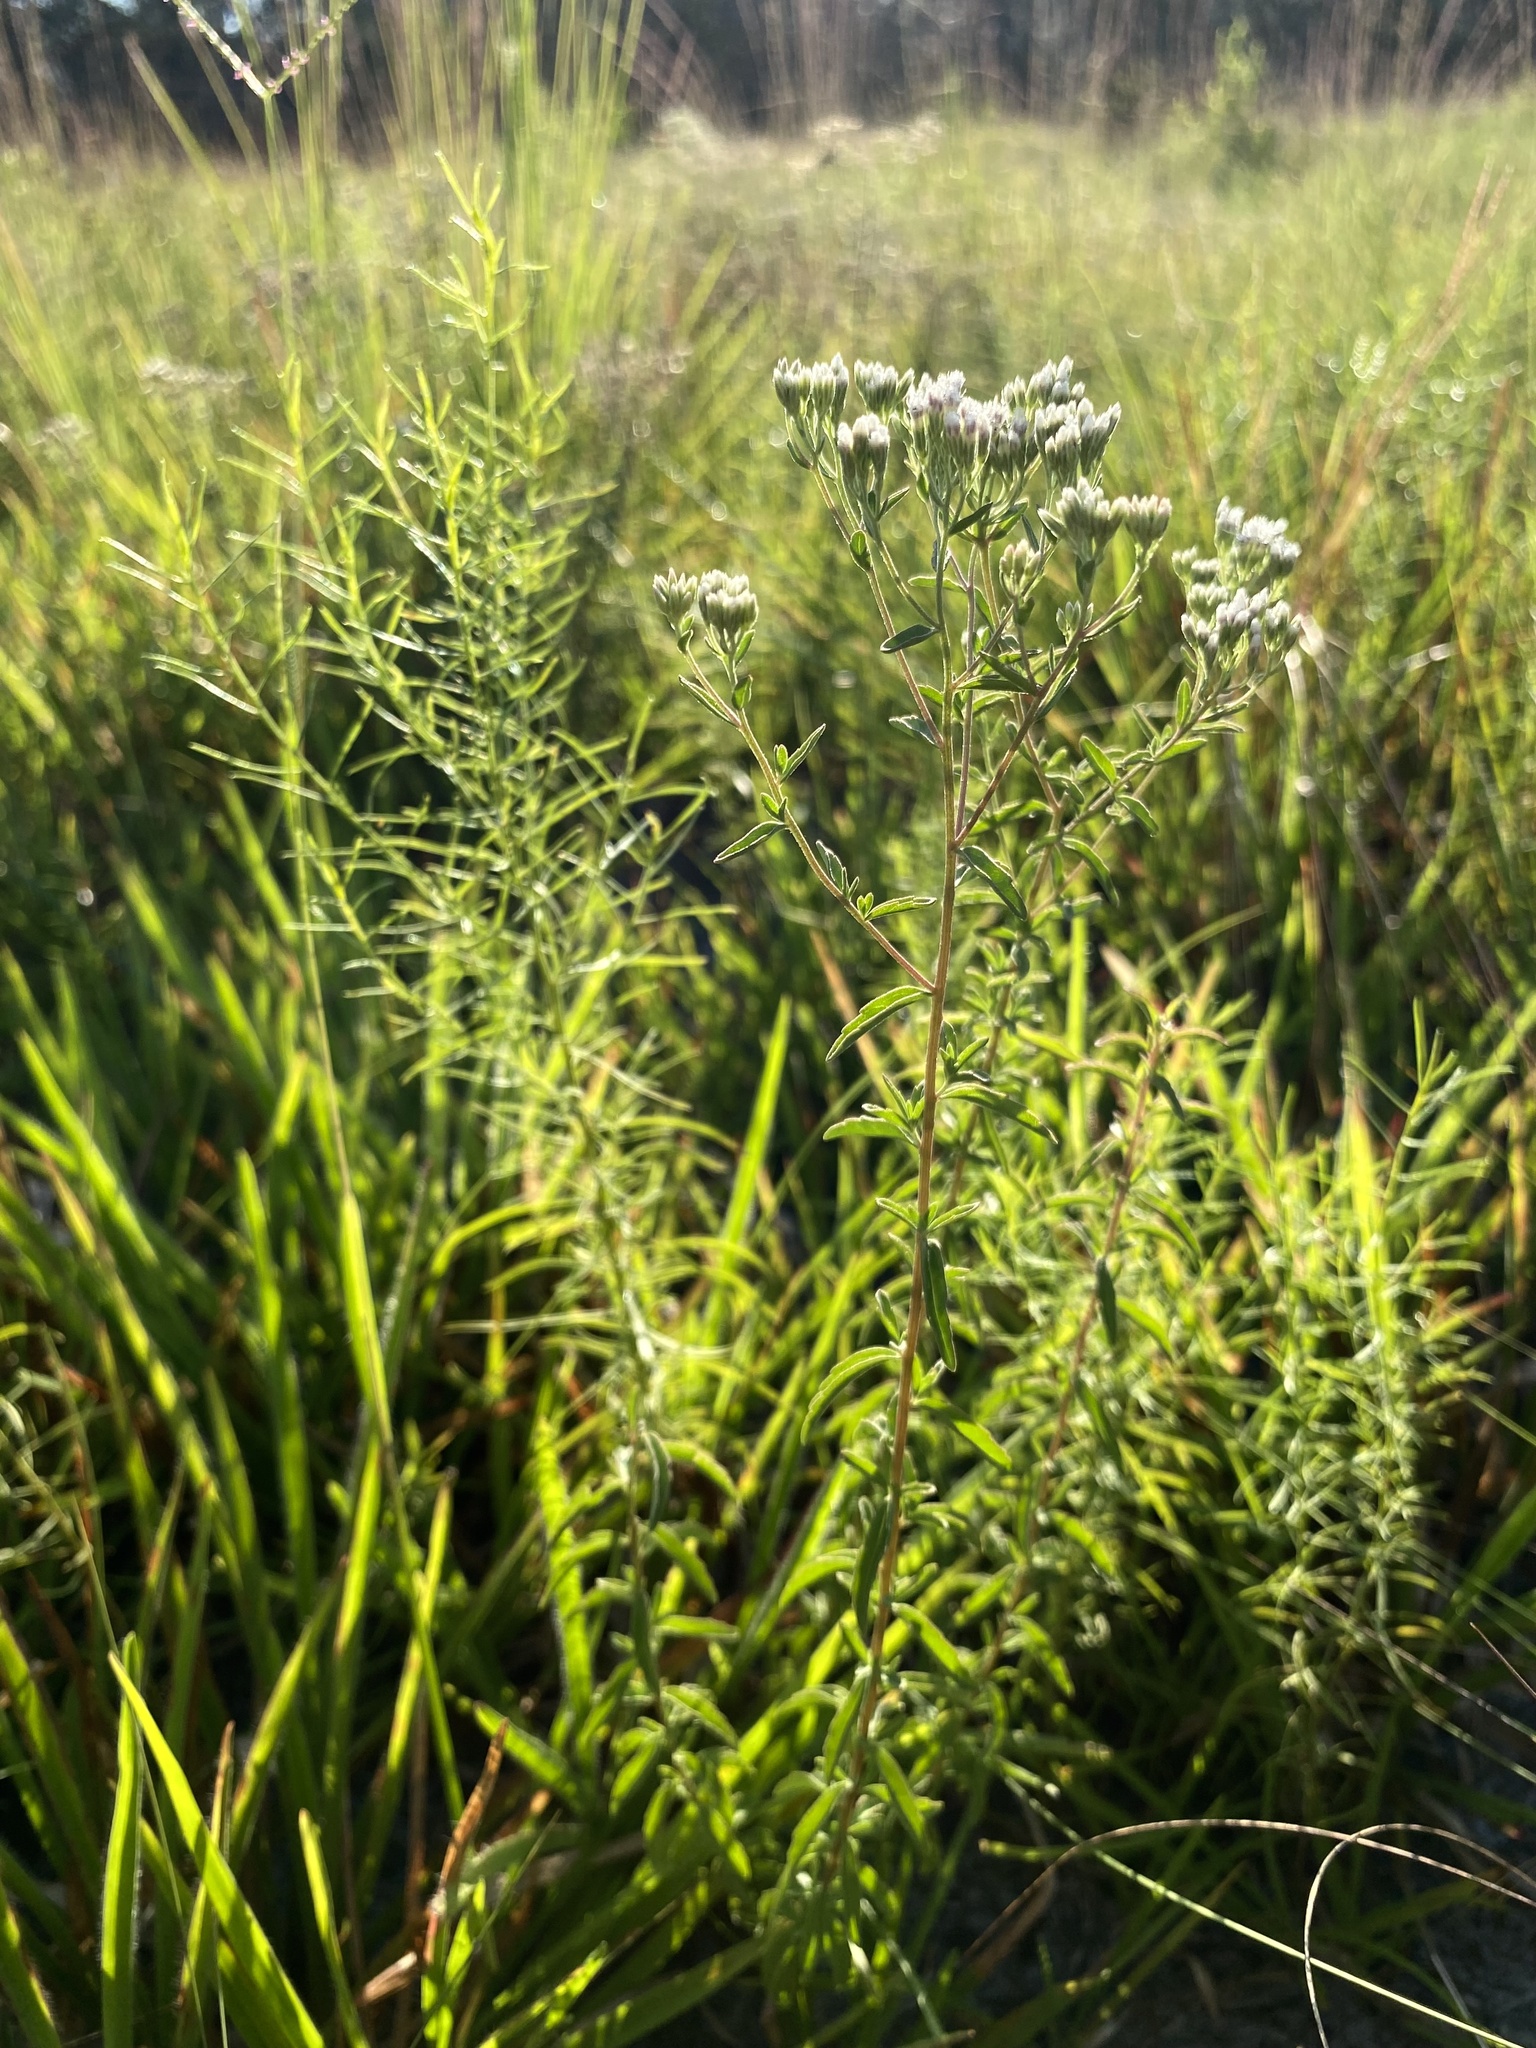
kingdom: Plantae
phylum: Tracheophyta
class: Magnoliopsida
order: Asterales
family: Asteraceae
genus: Eupatorium
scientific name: Eupatorium mohrii
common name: Mohr's thoroughwort
